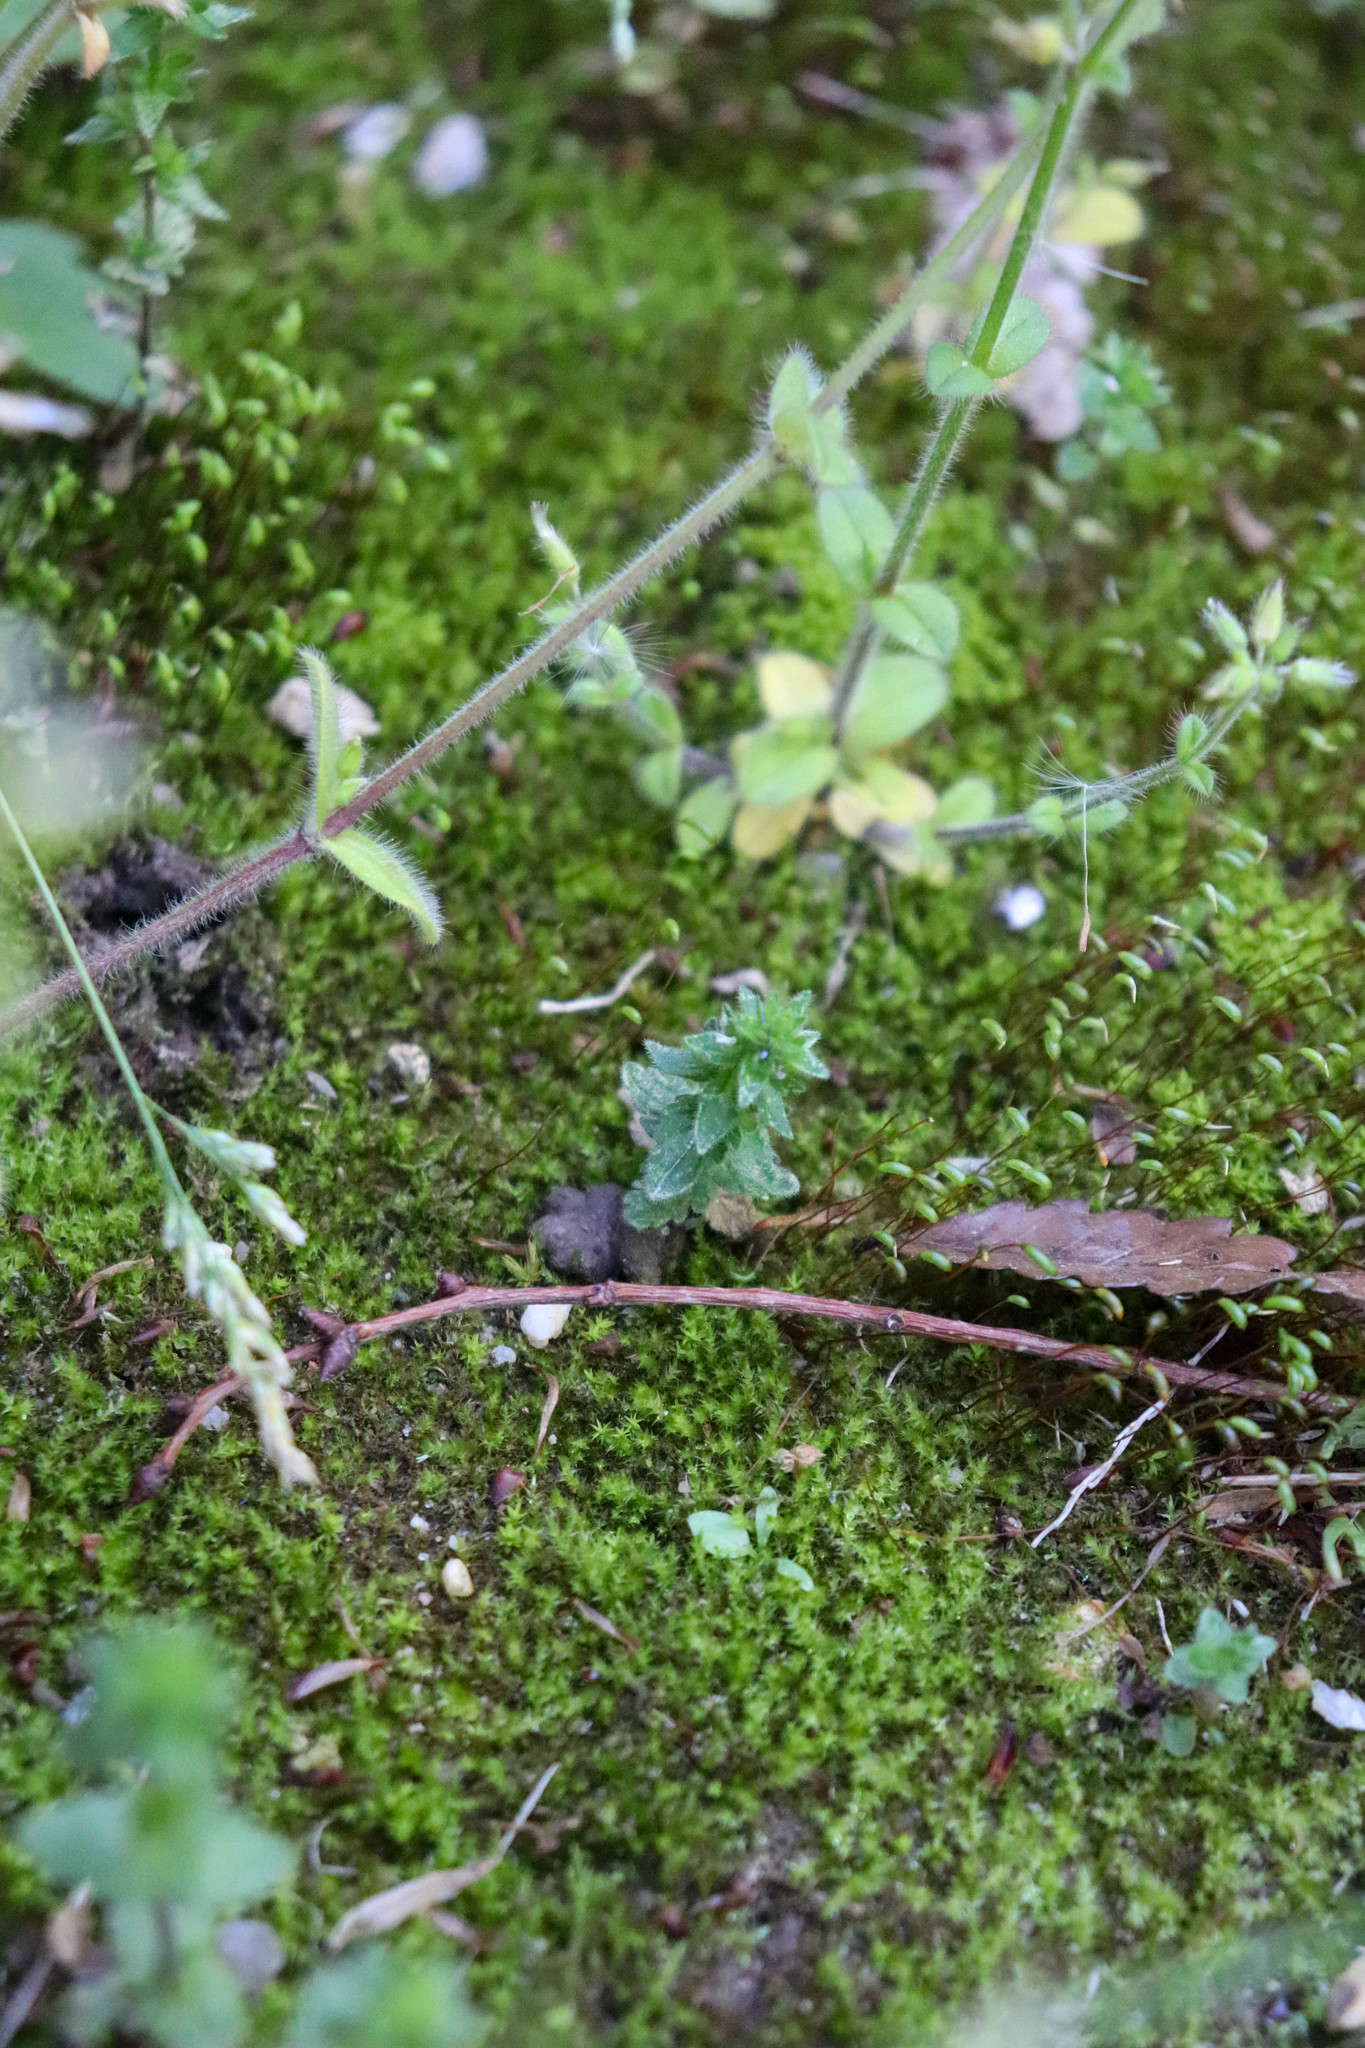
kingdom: Plantae
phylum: Tracheophyta
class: Magnoliopsida
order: Lamiales
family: Plantaginaceae
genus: Veronica
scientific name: Veronica arvensis
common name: Corn speedwell
